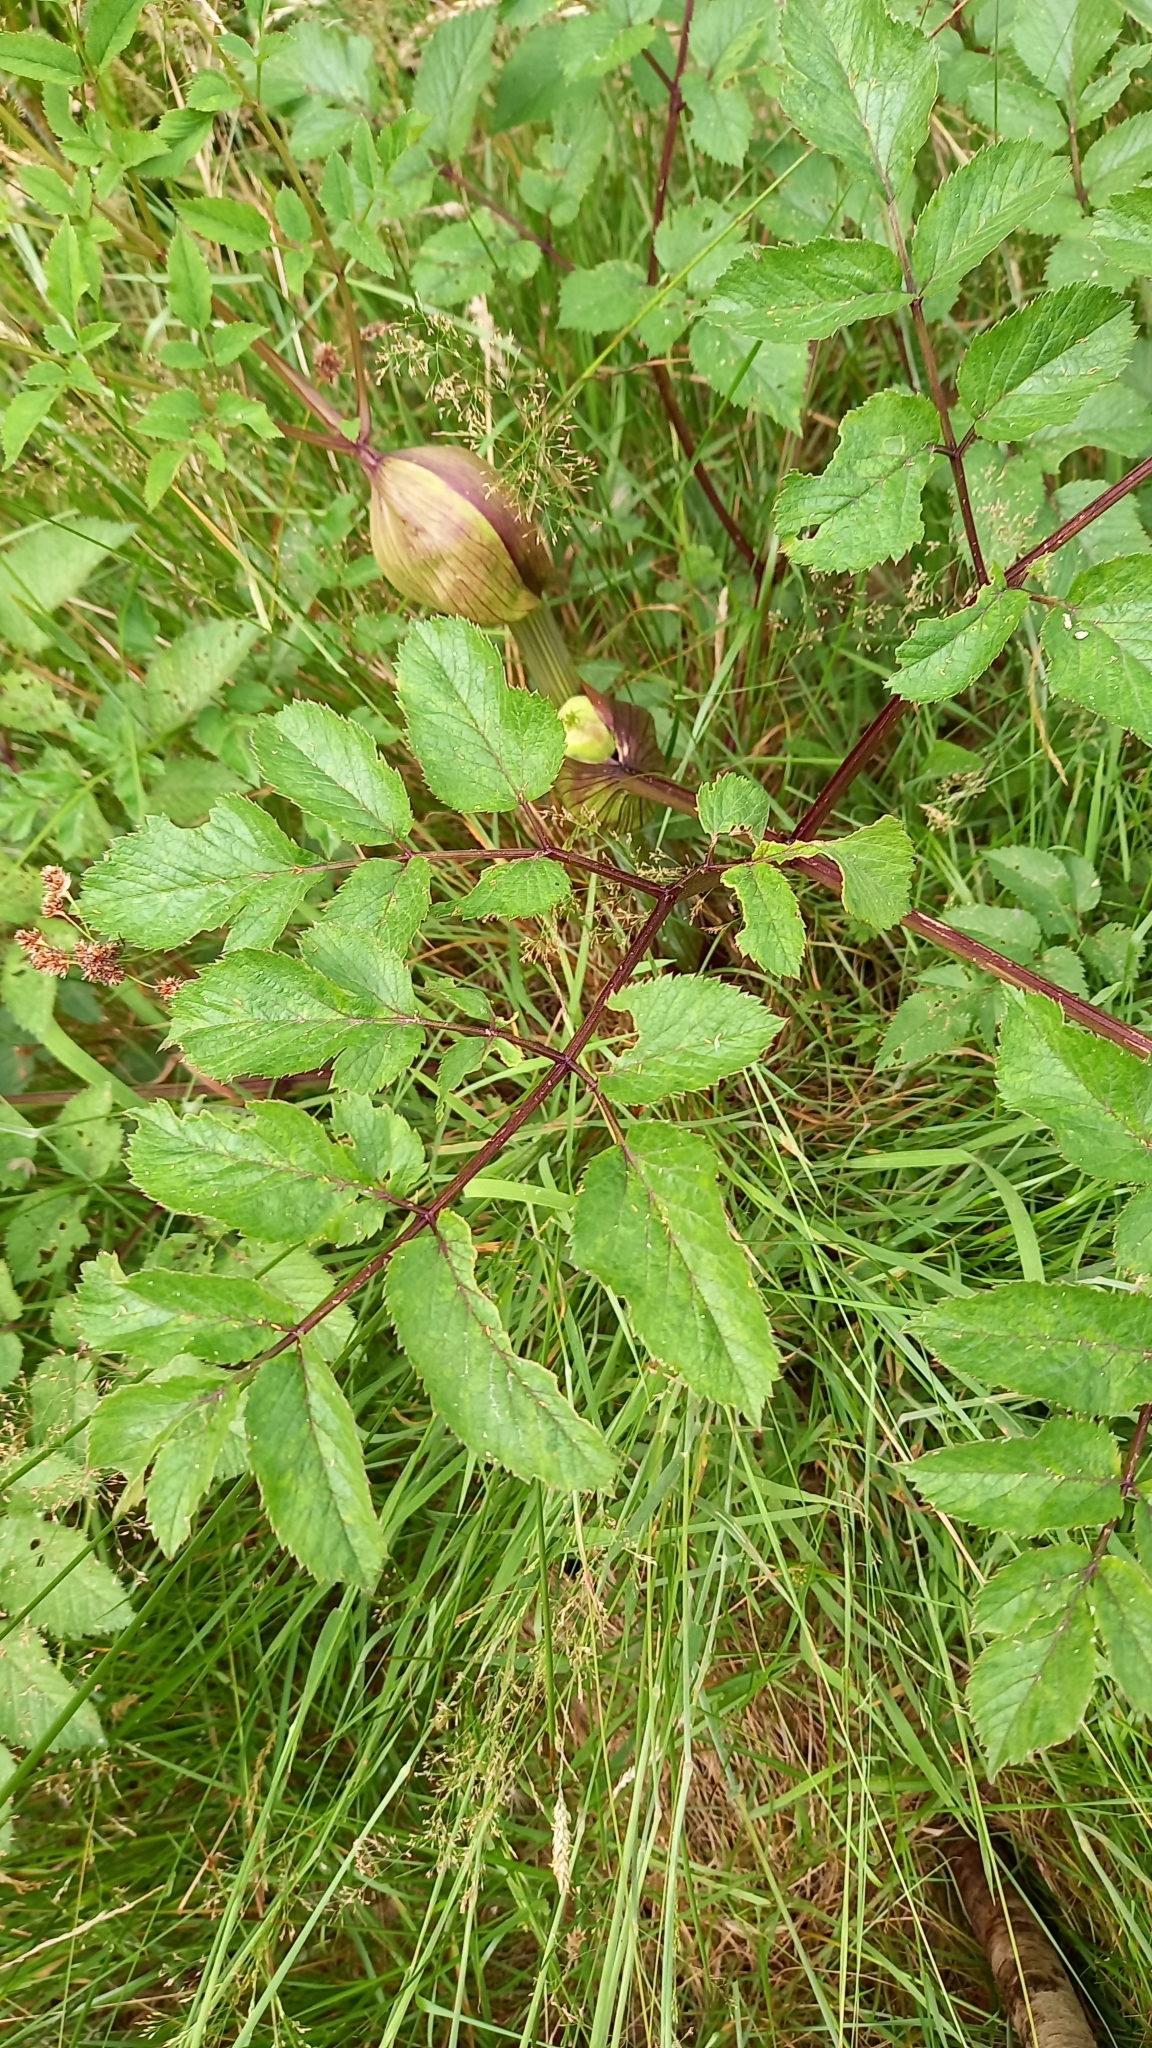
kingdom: Plantae
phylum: Tracheophyta
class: Magnoliopsida
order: Apiales
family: Apiaceae
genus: Angelica
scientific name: Angelica sylvestris
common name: Wild angelica
